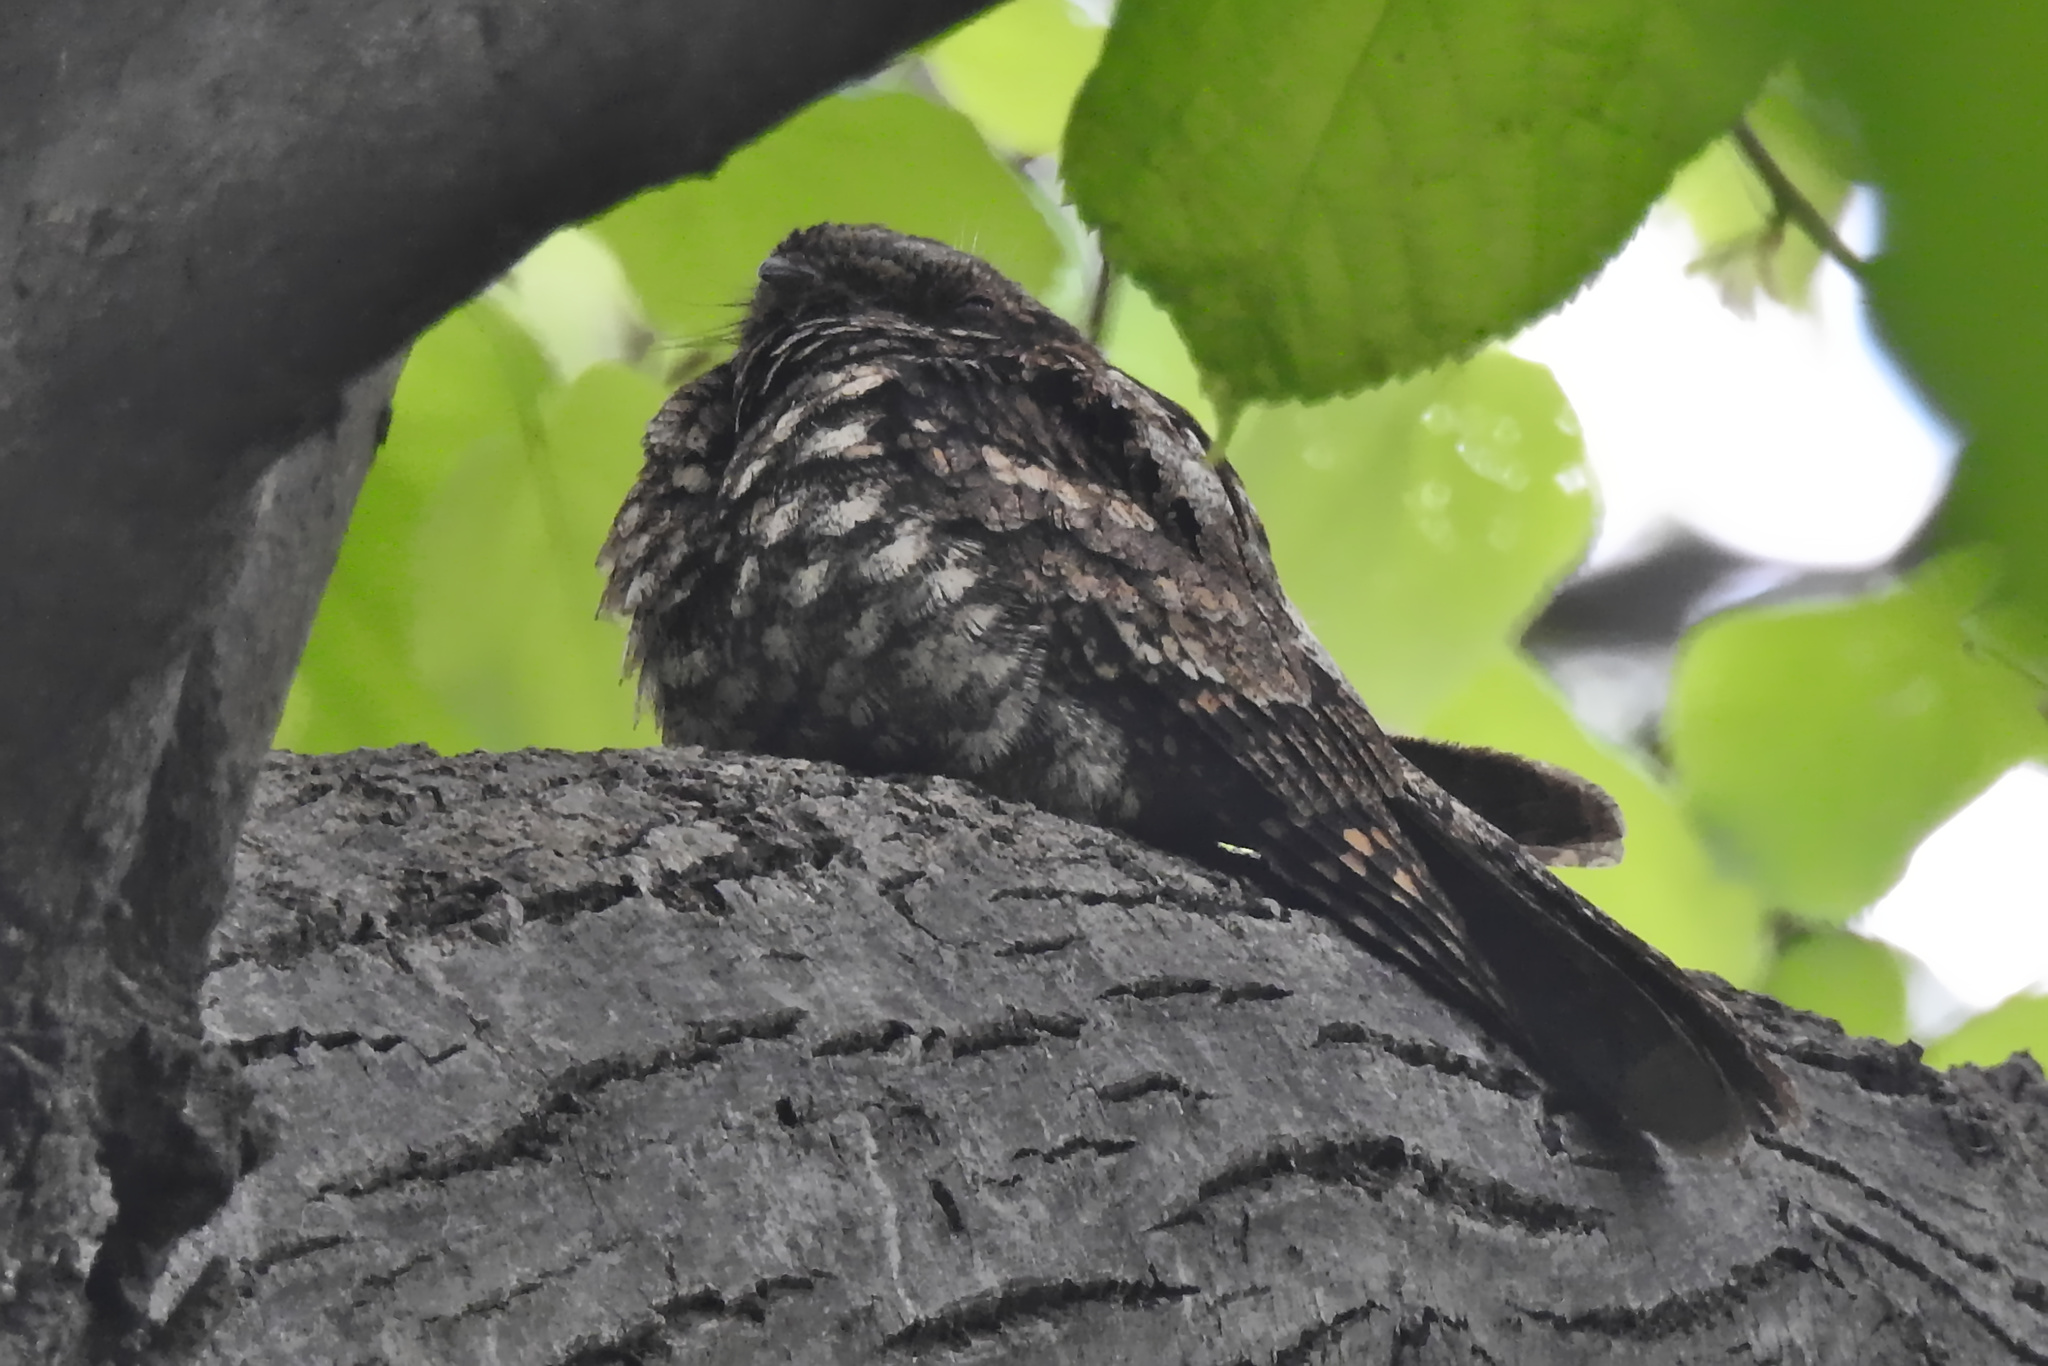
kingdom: Animalia
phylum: Chordata
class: Aves
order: Caprimulgiformes
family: Caprimulgidae
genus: Antrostomus
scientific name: Antrostomus vociferus
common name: Eastern whip-poor-will
